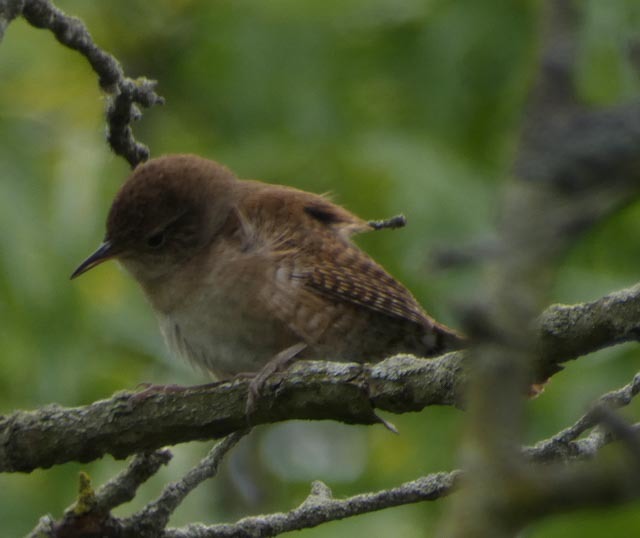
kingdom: Animalia
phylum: Chordata
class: Aves
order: Passeriformes
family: Troglodytidae
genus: Troglodytes
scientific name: Troglodytes aedon
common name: House wren
